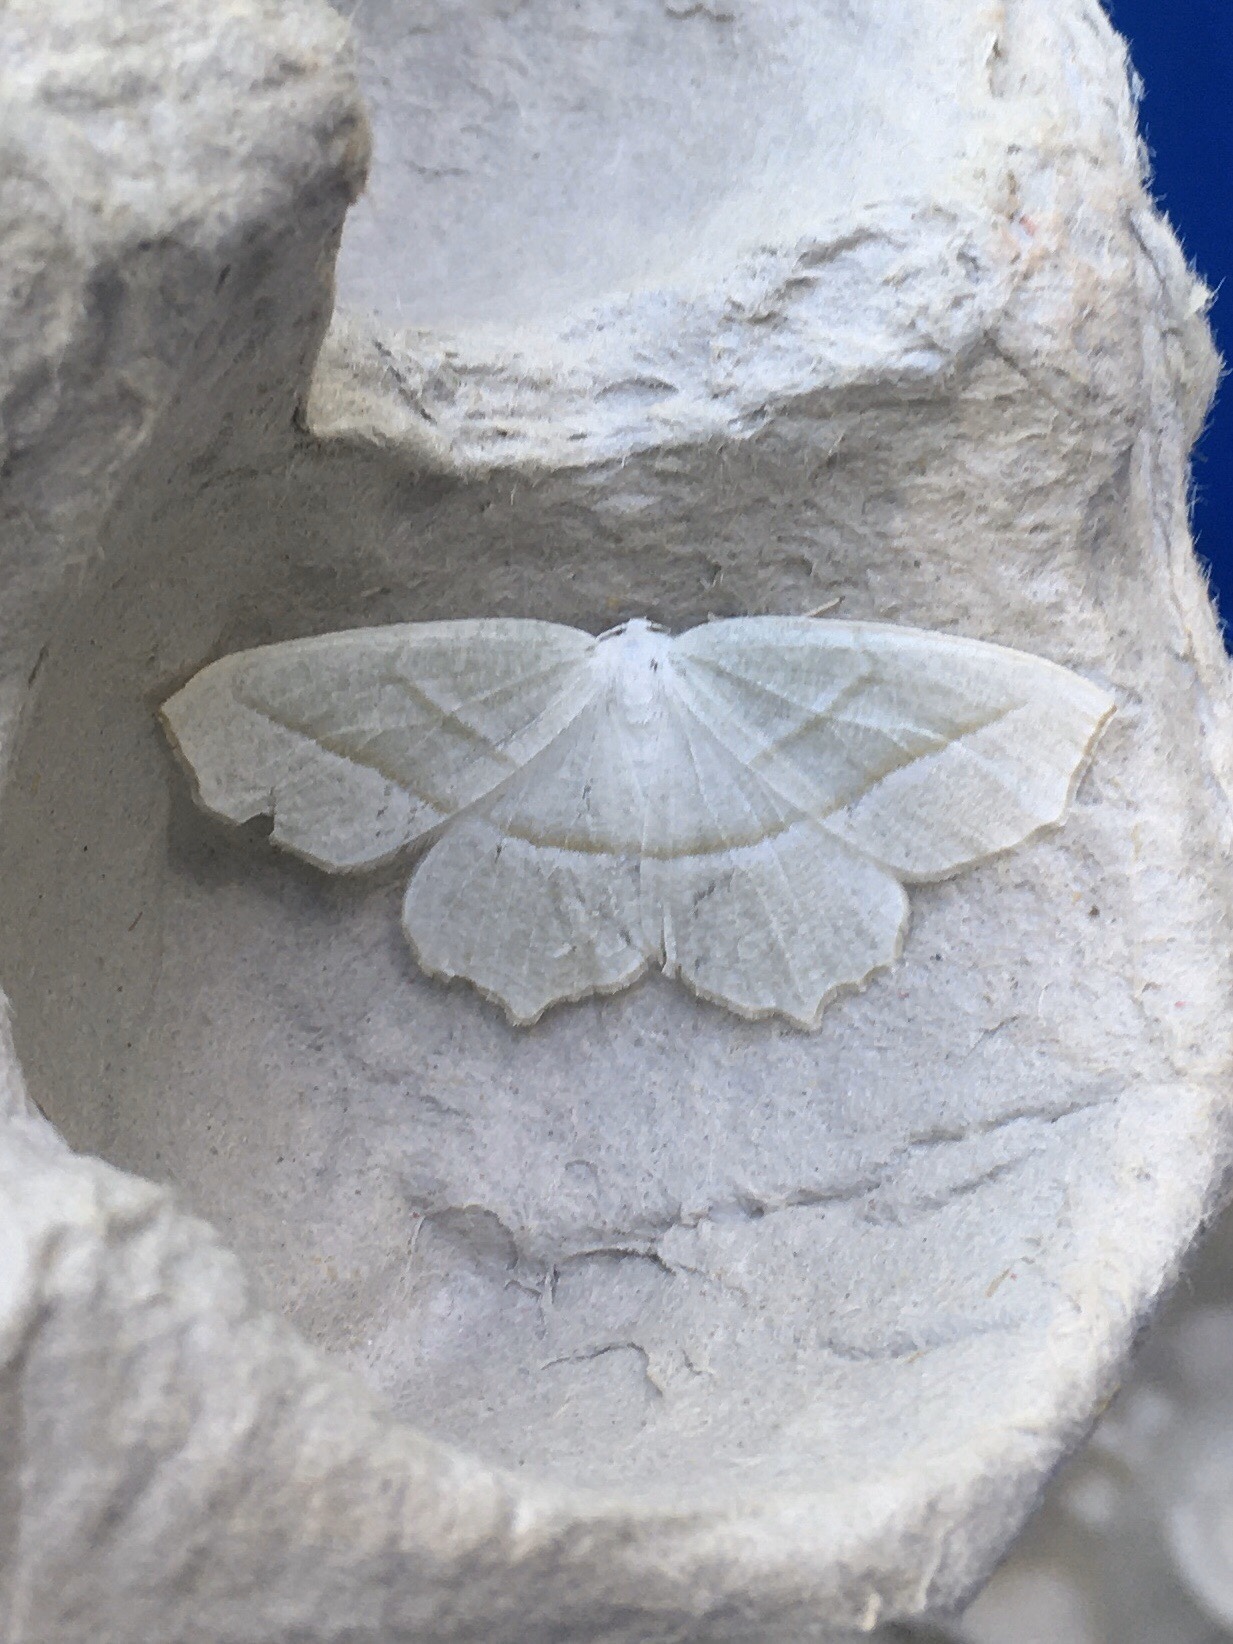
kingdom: Animalia
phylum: Arthropoda
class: Insecta
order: Lepidoptera
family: Geometridae
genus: Campaea
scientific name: Campaea perlata
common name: Fringed looper
